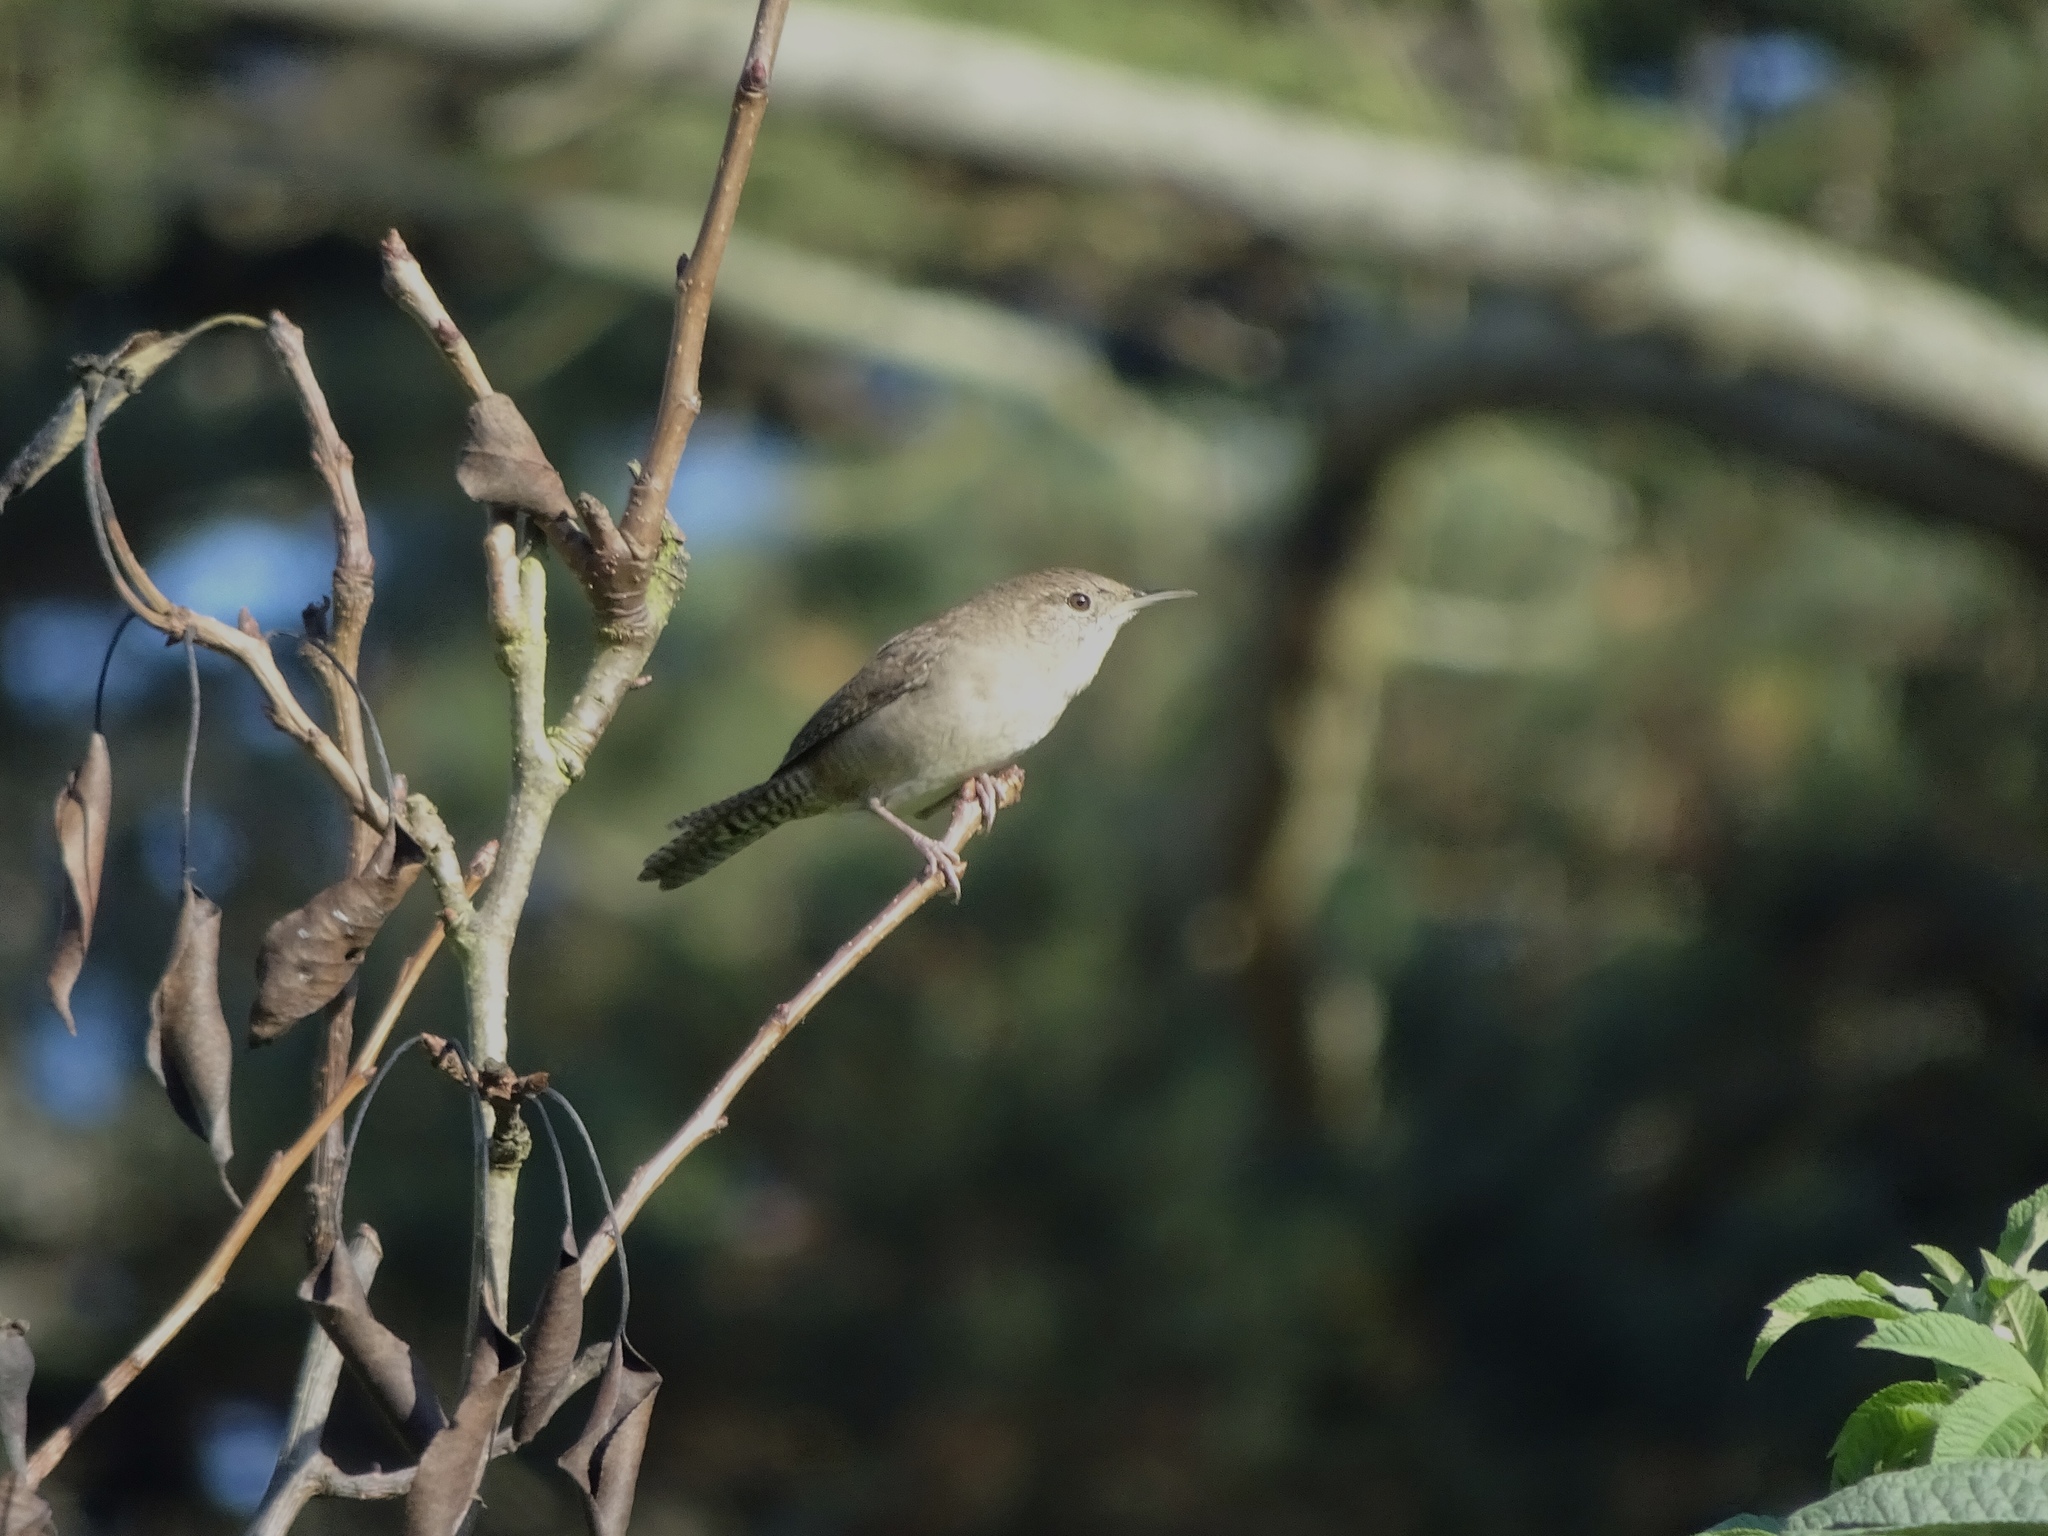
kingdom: Animalia
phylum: Chordata
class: Aves
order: Passeriformes
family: Troglodytidae
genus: Troglodytes
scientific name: Troglodytes aedon
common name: House wren
